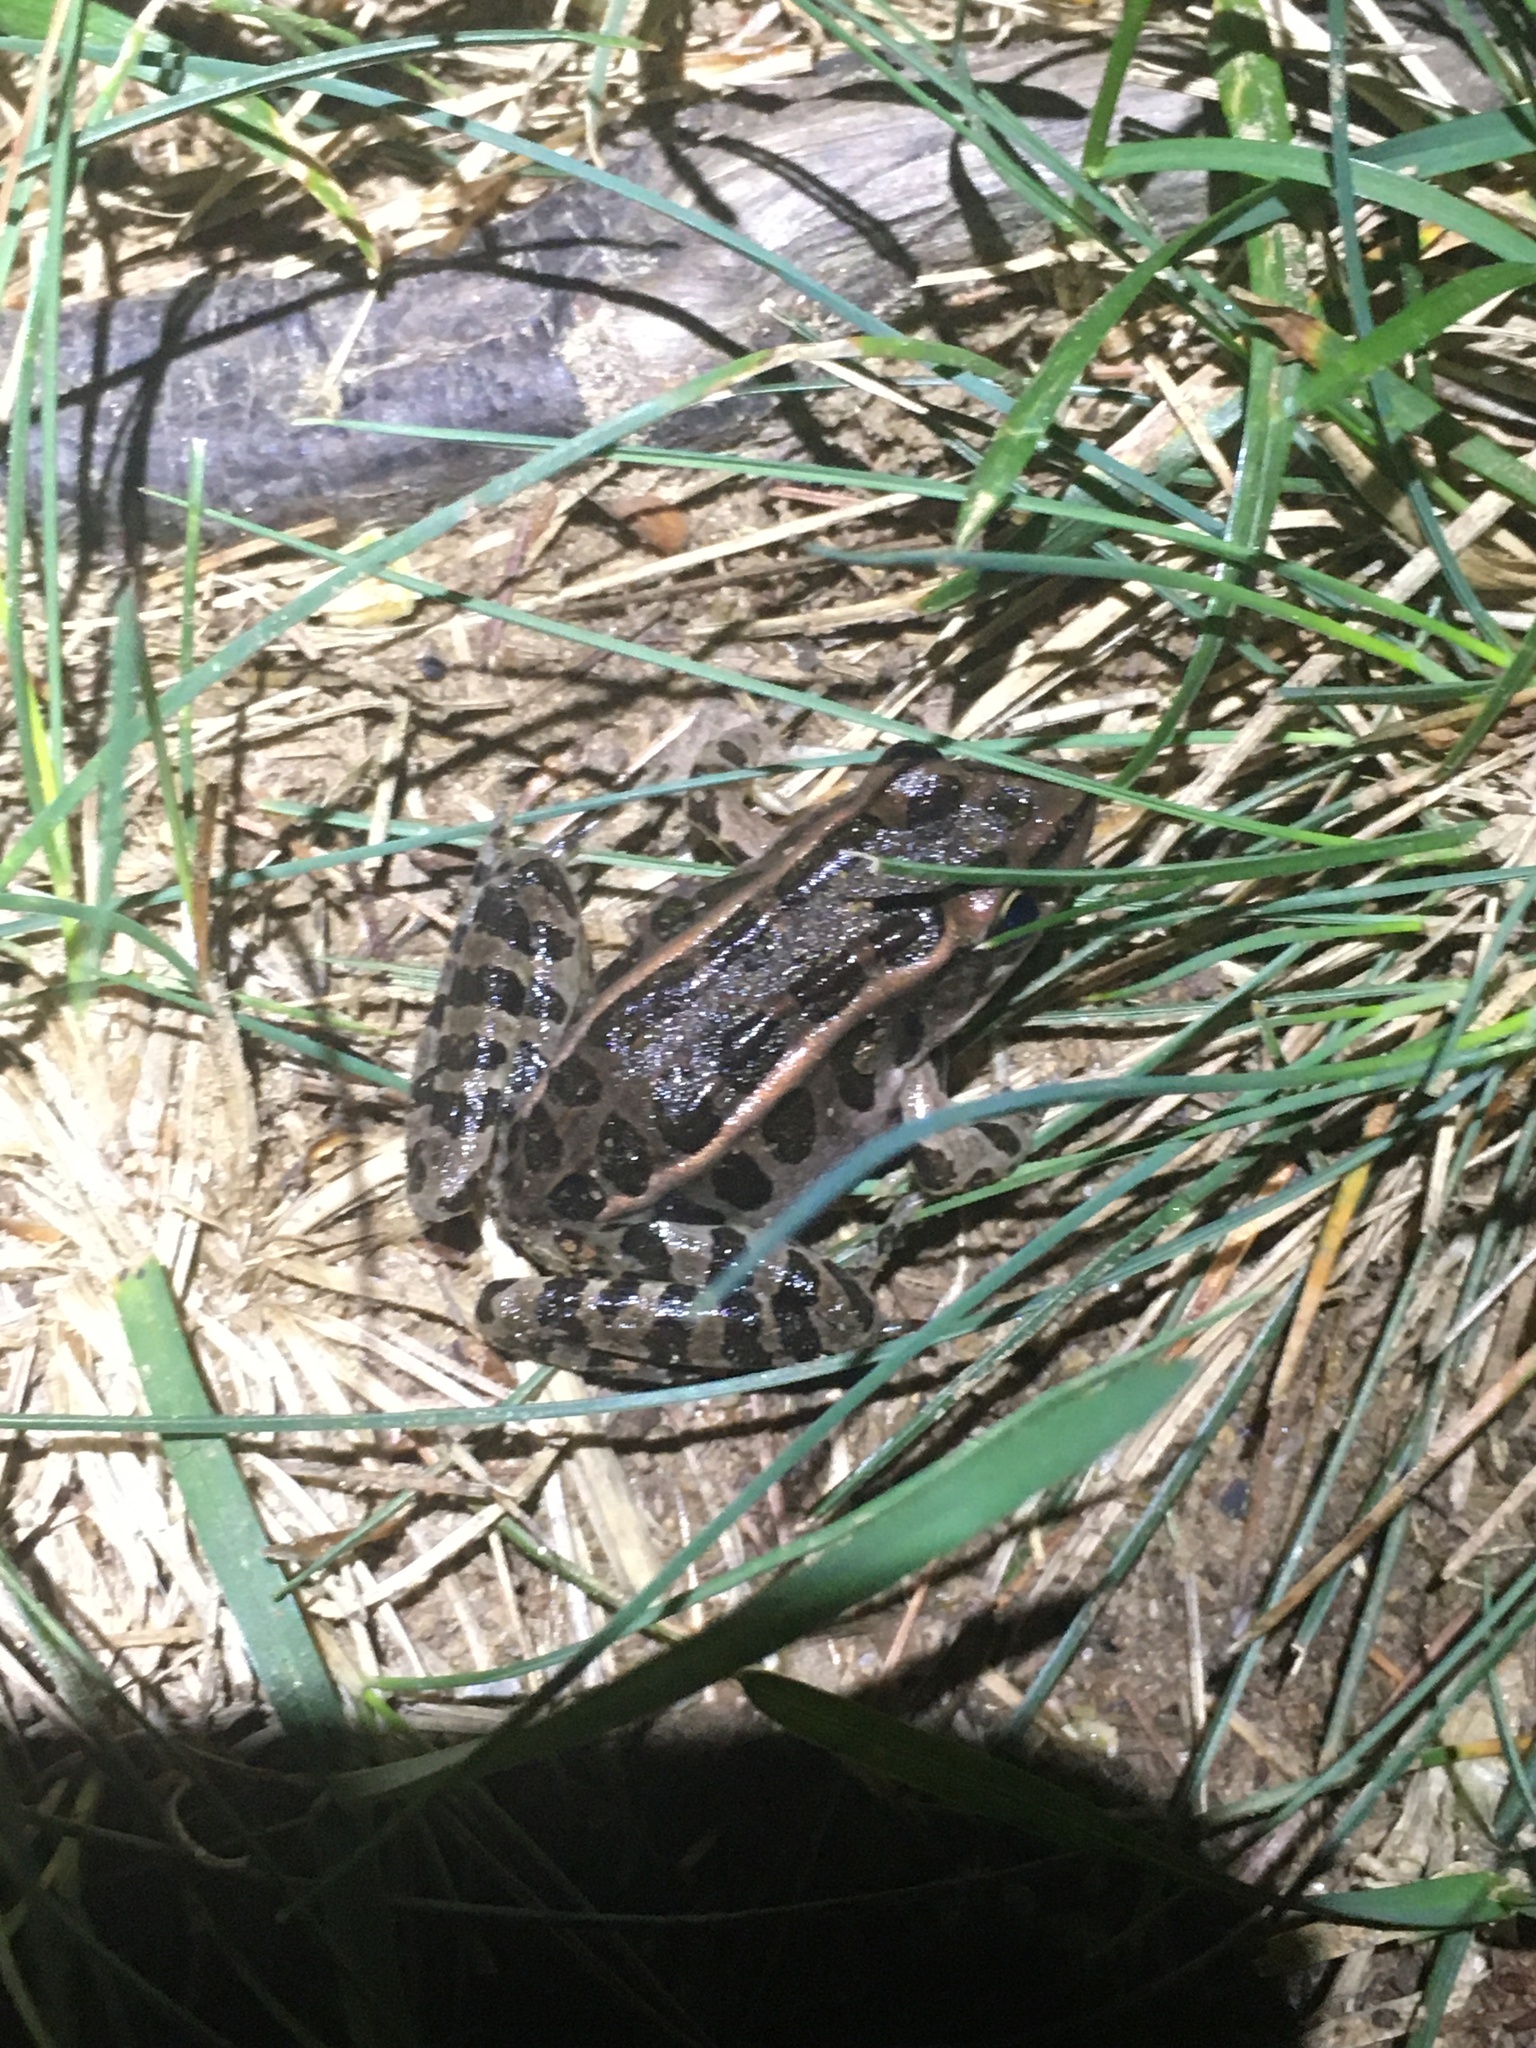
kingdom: Animalia
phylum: Chordata
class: Amphibia
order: Anura
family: Ranidae
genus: Lithobates
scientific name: Lithobates palustris
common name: Pickerel frog
